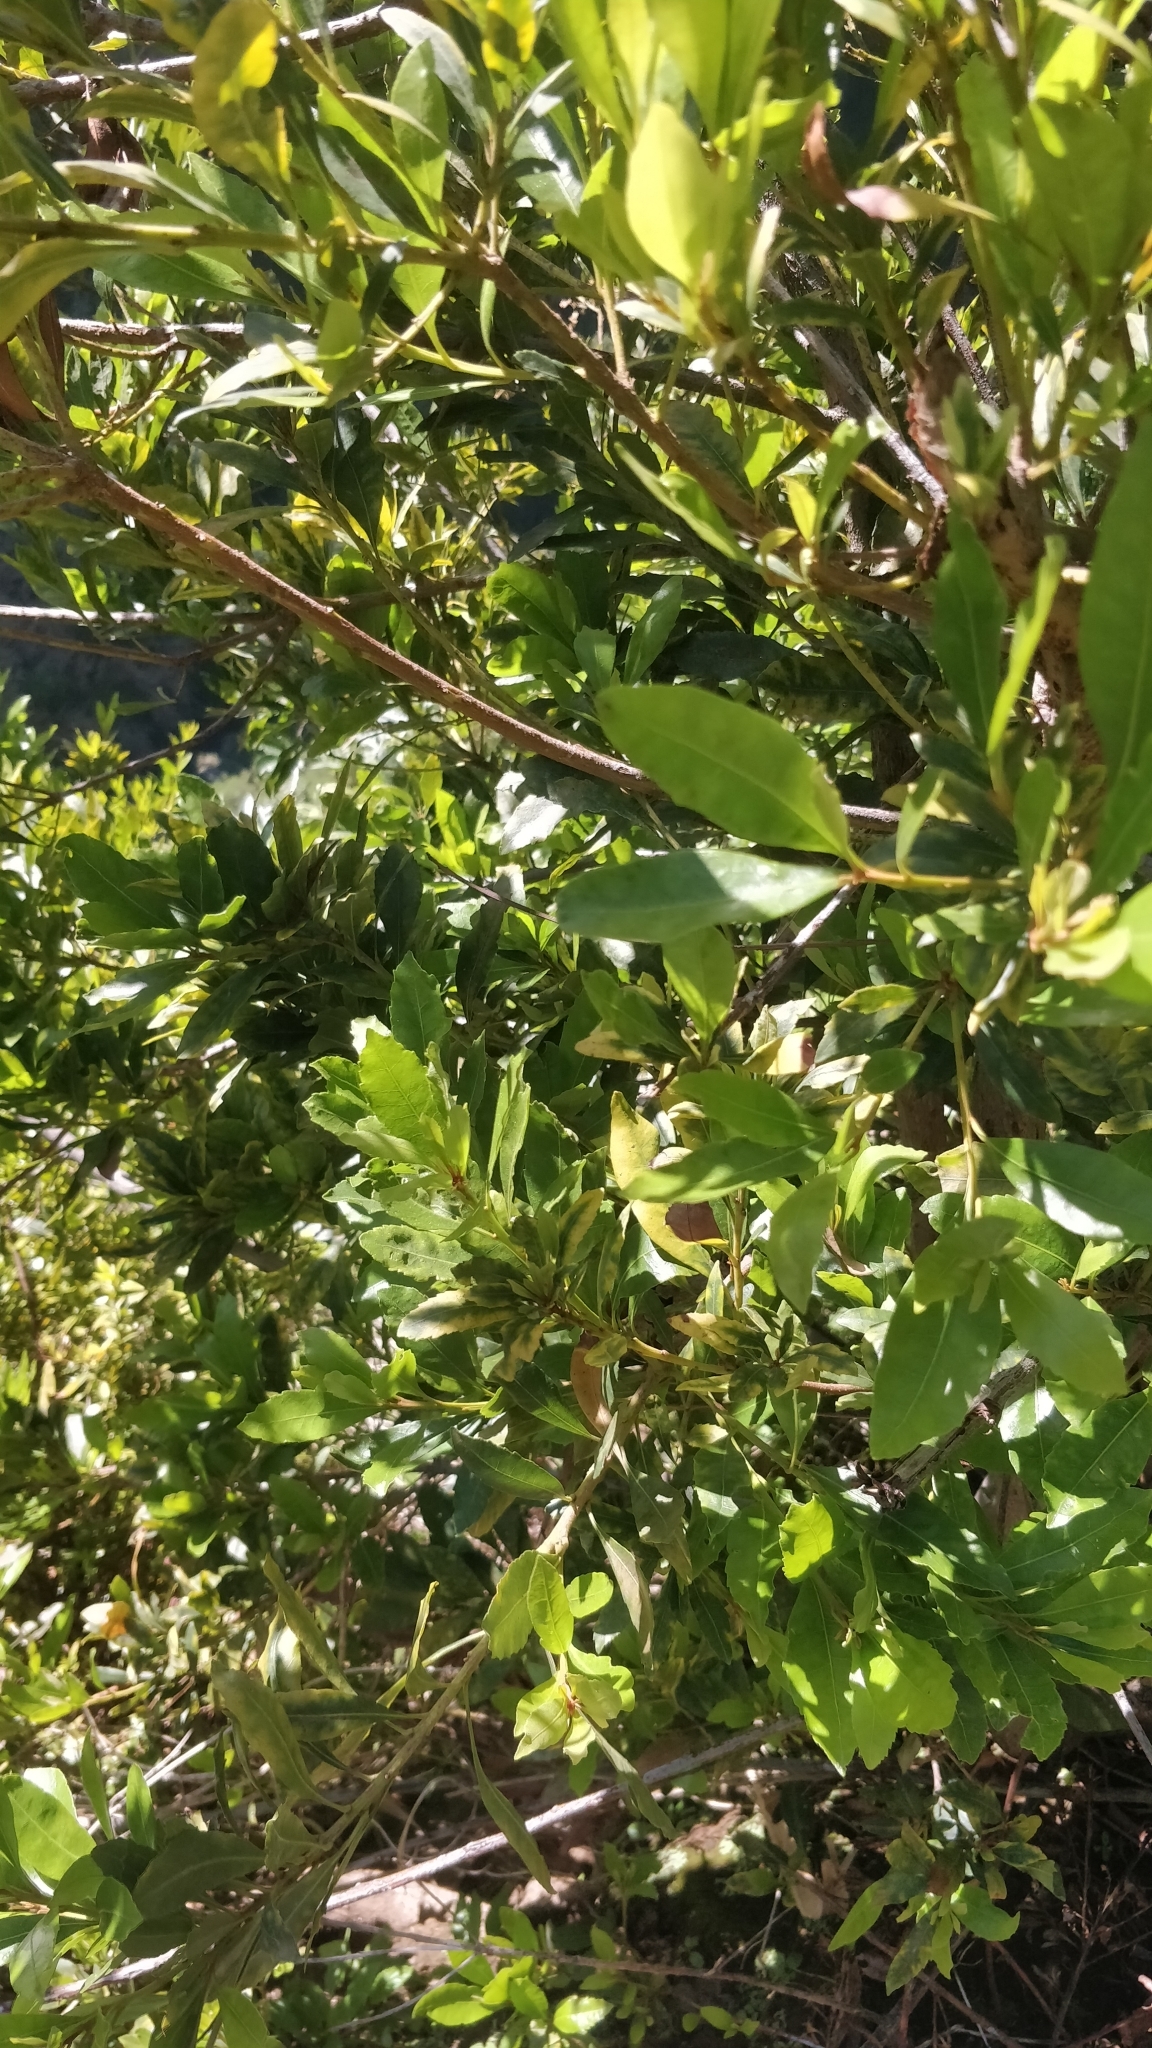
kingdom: Plantae
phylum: Tracheophyta
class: Magnoliopsida
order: Fagales
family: Myricaceae
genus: Morella
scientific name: Morella faya
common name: Firetree
